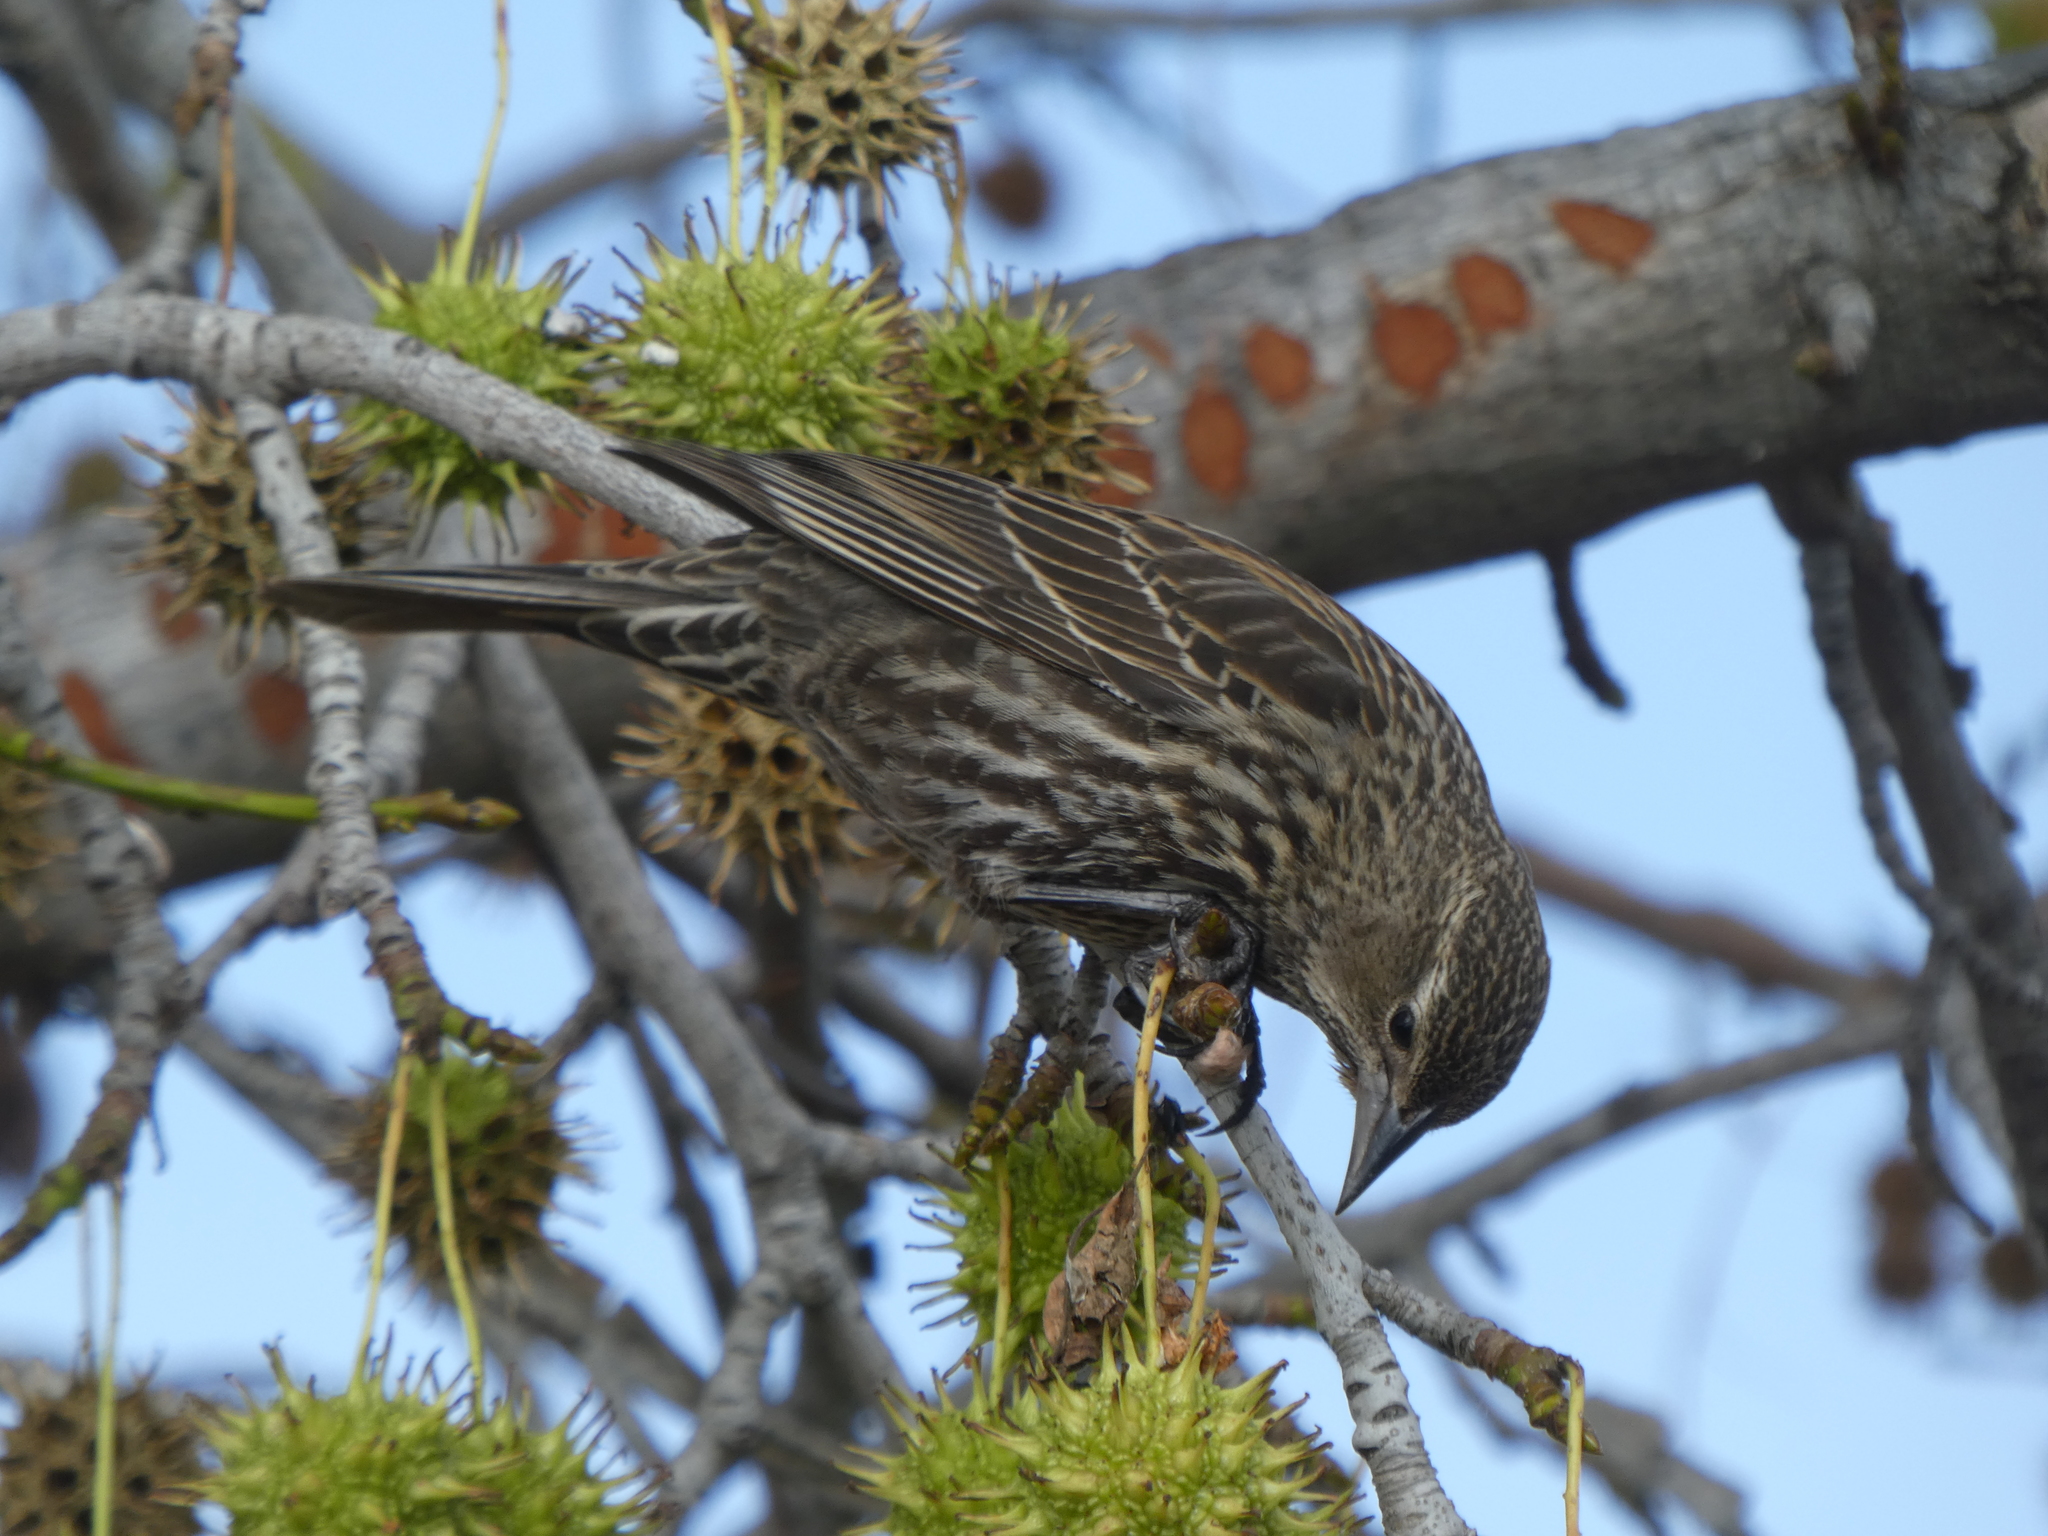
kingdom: Animalia
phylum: Chordata
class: Aves
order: Passeriformes
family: Icteridae
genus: Agelaius
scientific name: Agelaius phoeniceus
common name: Red-winged blackbird
